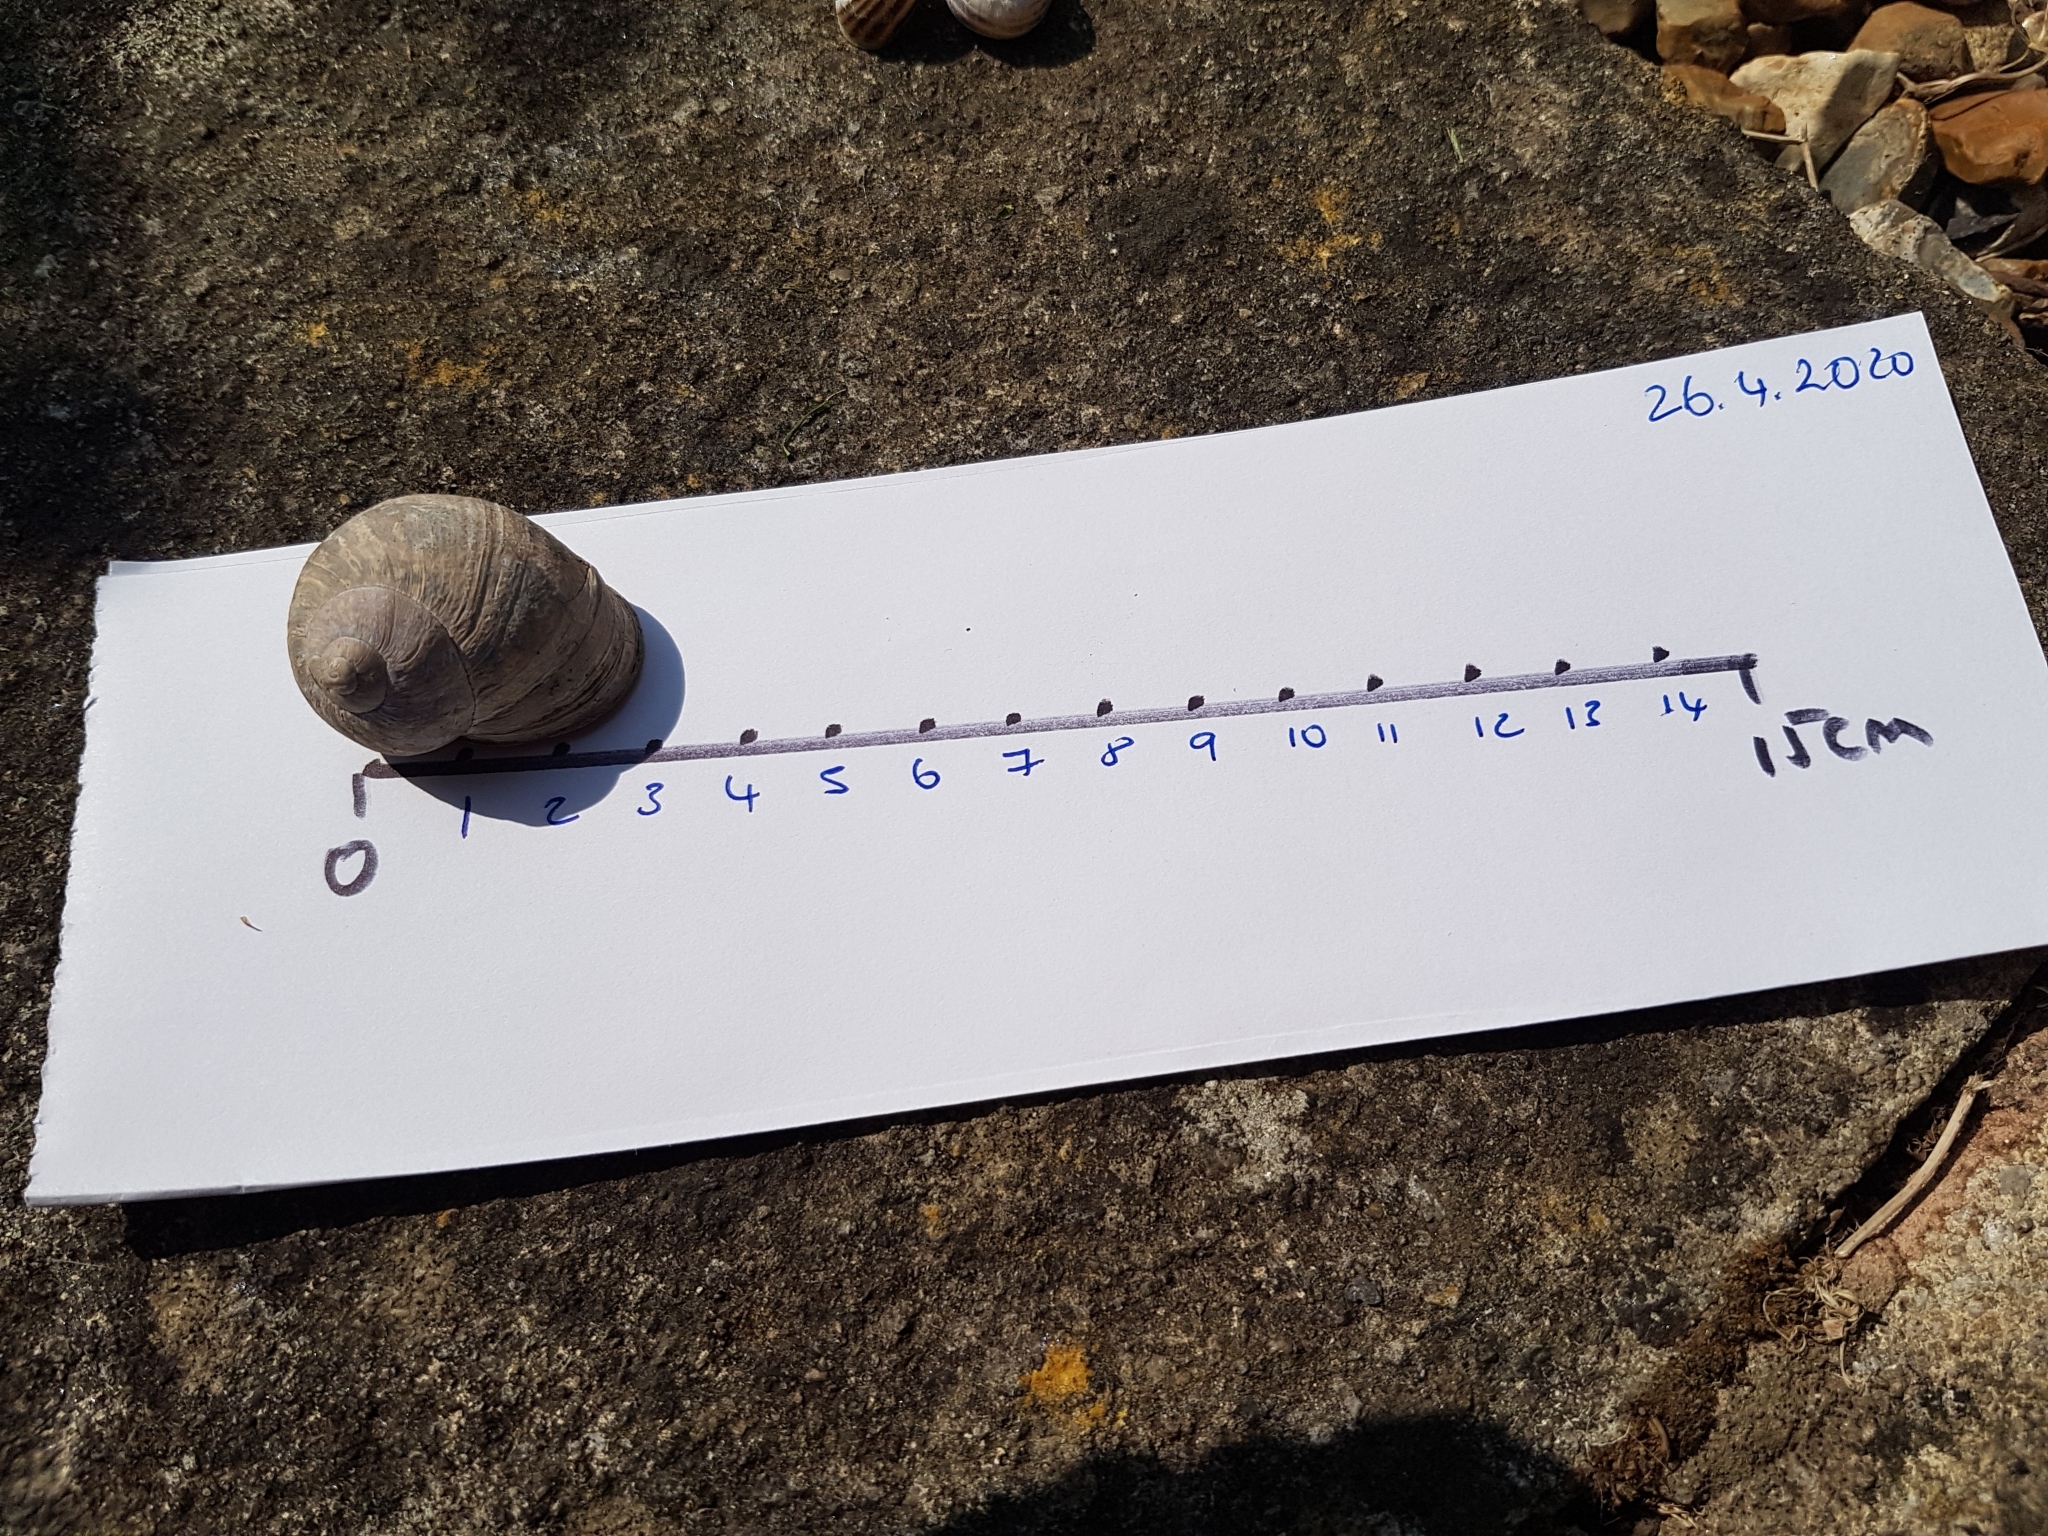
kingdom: Animalia
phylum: Mollusca
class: Gastropoda
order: Stylommatophora
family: Helicidae
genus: Cornu
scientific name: Cornu aspersum
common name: Brown garden snail
